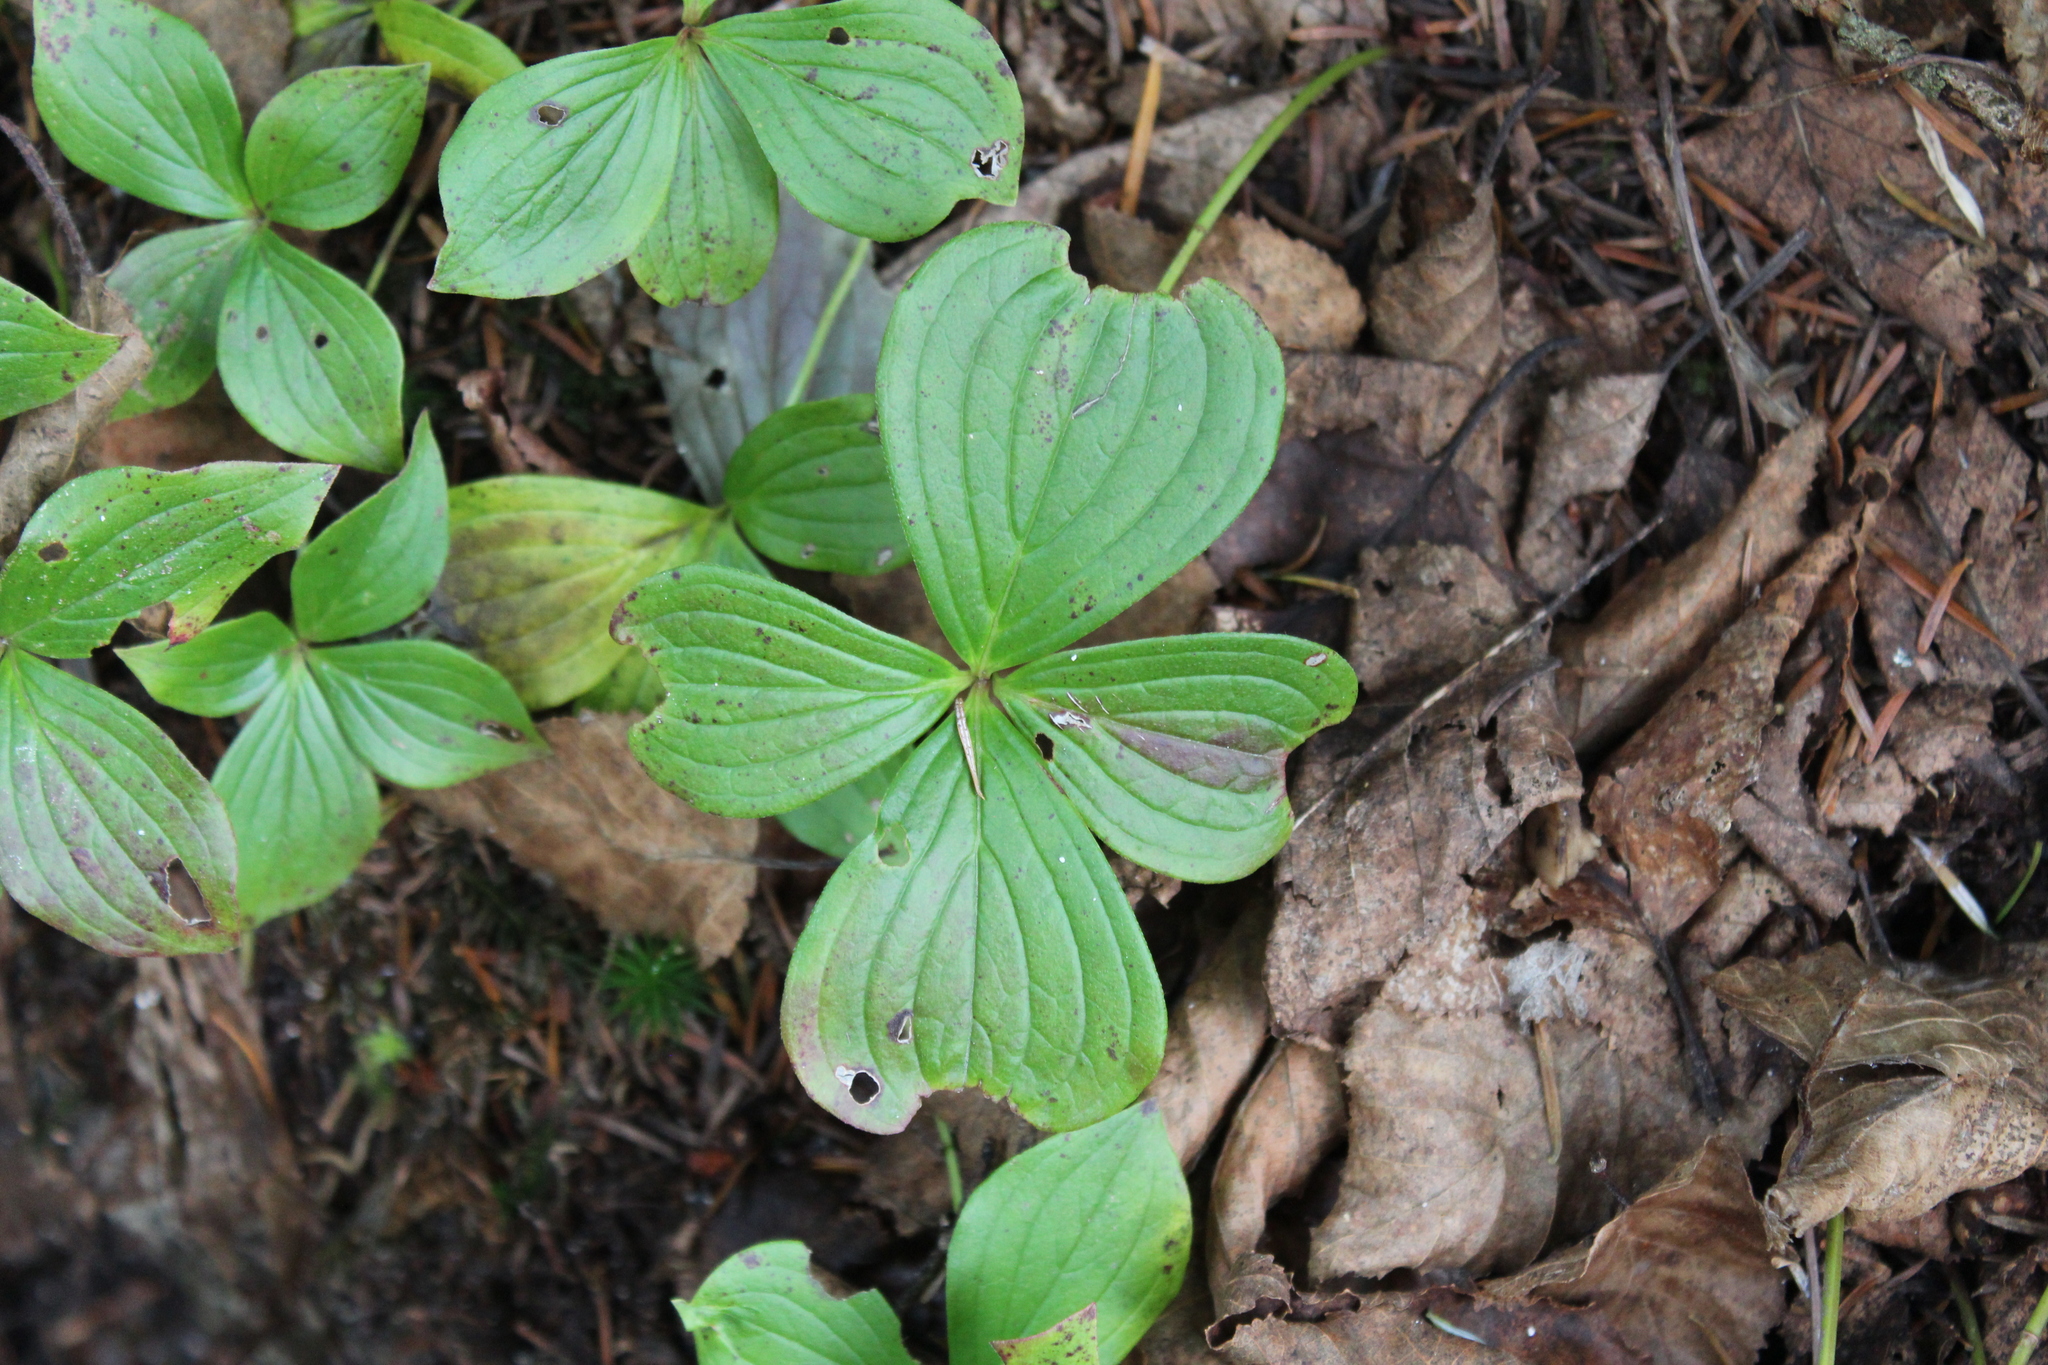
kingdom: Plantae
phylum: Tracheophyta
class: Magnoliopsida
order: Cornales
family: Cornaceae
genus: Cornus
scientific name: Cornus canadensis
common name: Creeping dogwood
